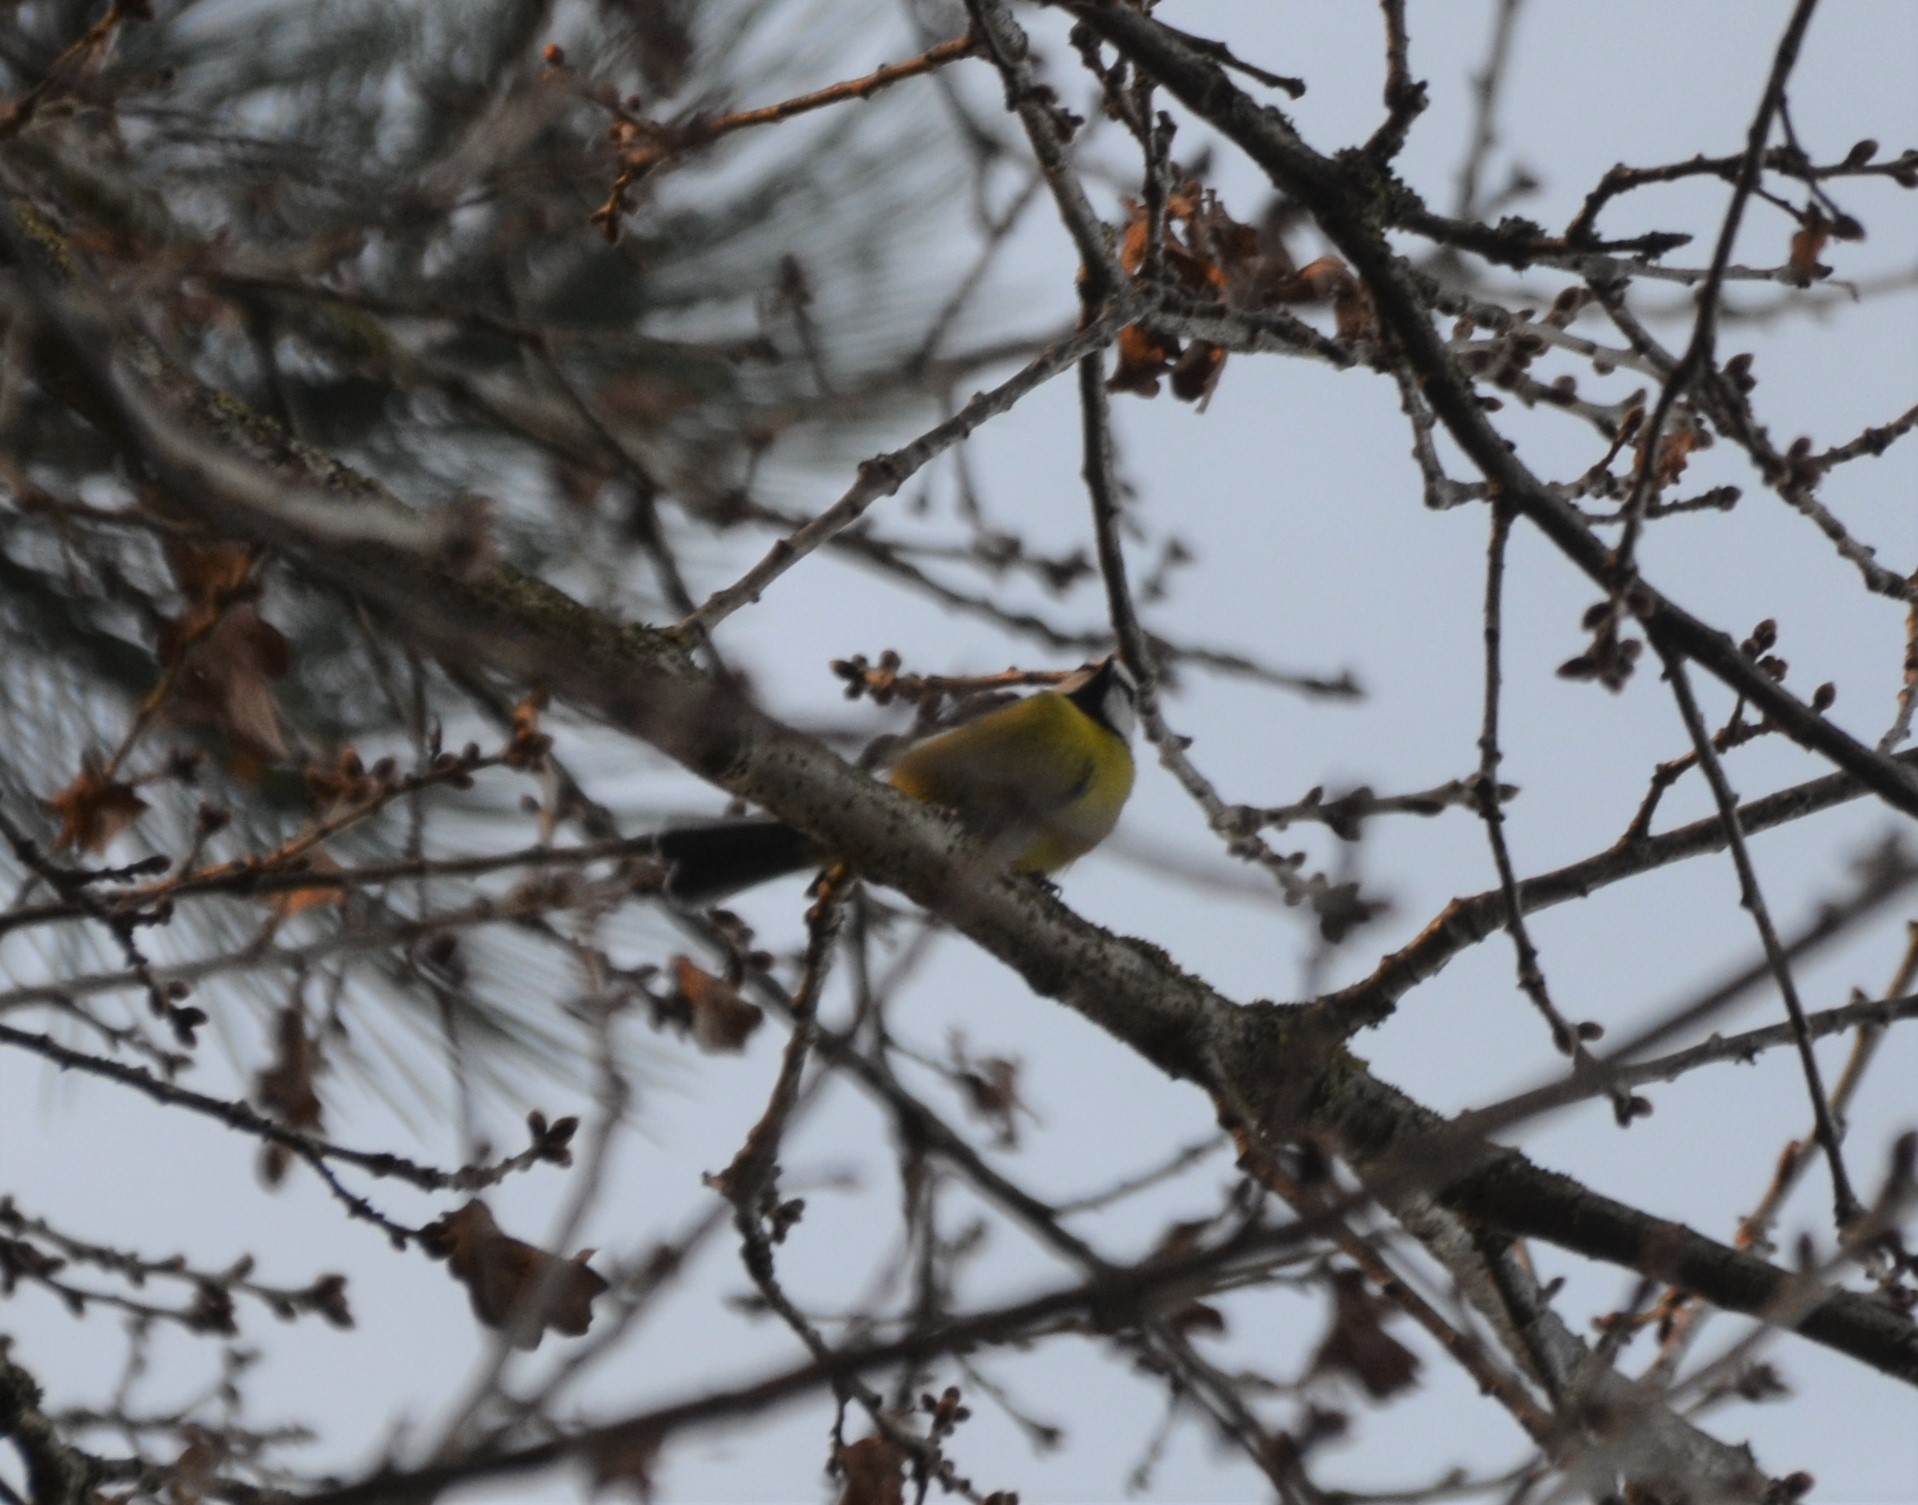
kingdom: Animalia
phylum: Chordata
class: Aves
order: Passeriformes
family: Paridae
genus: Cyanistes
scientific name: Cyanistes caeruleus
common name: Eurasian blue tit
